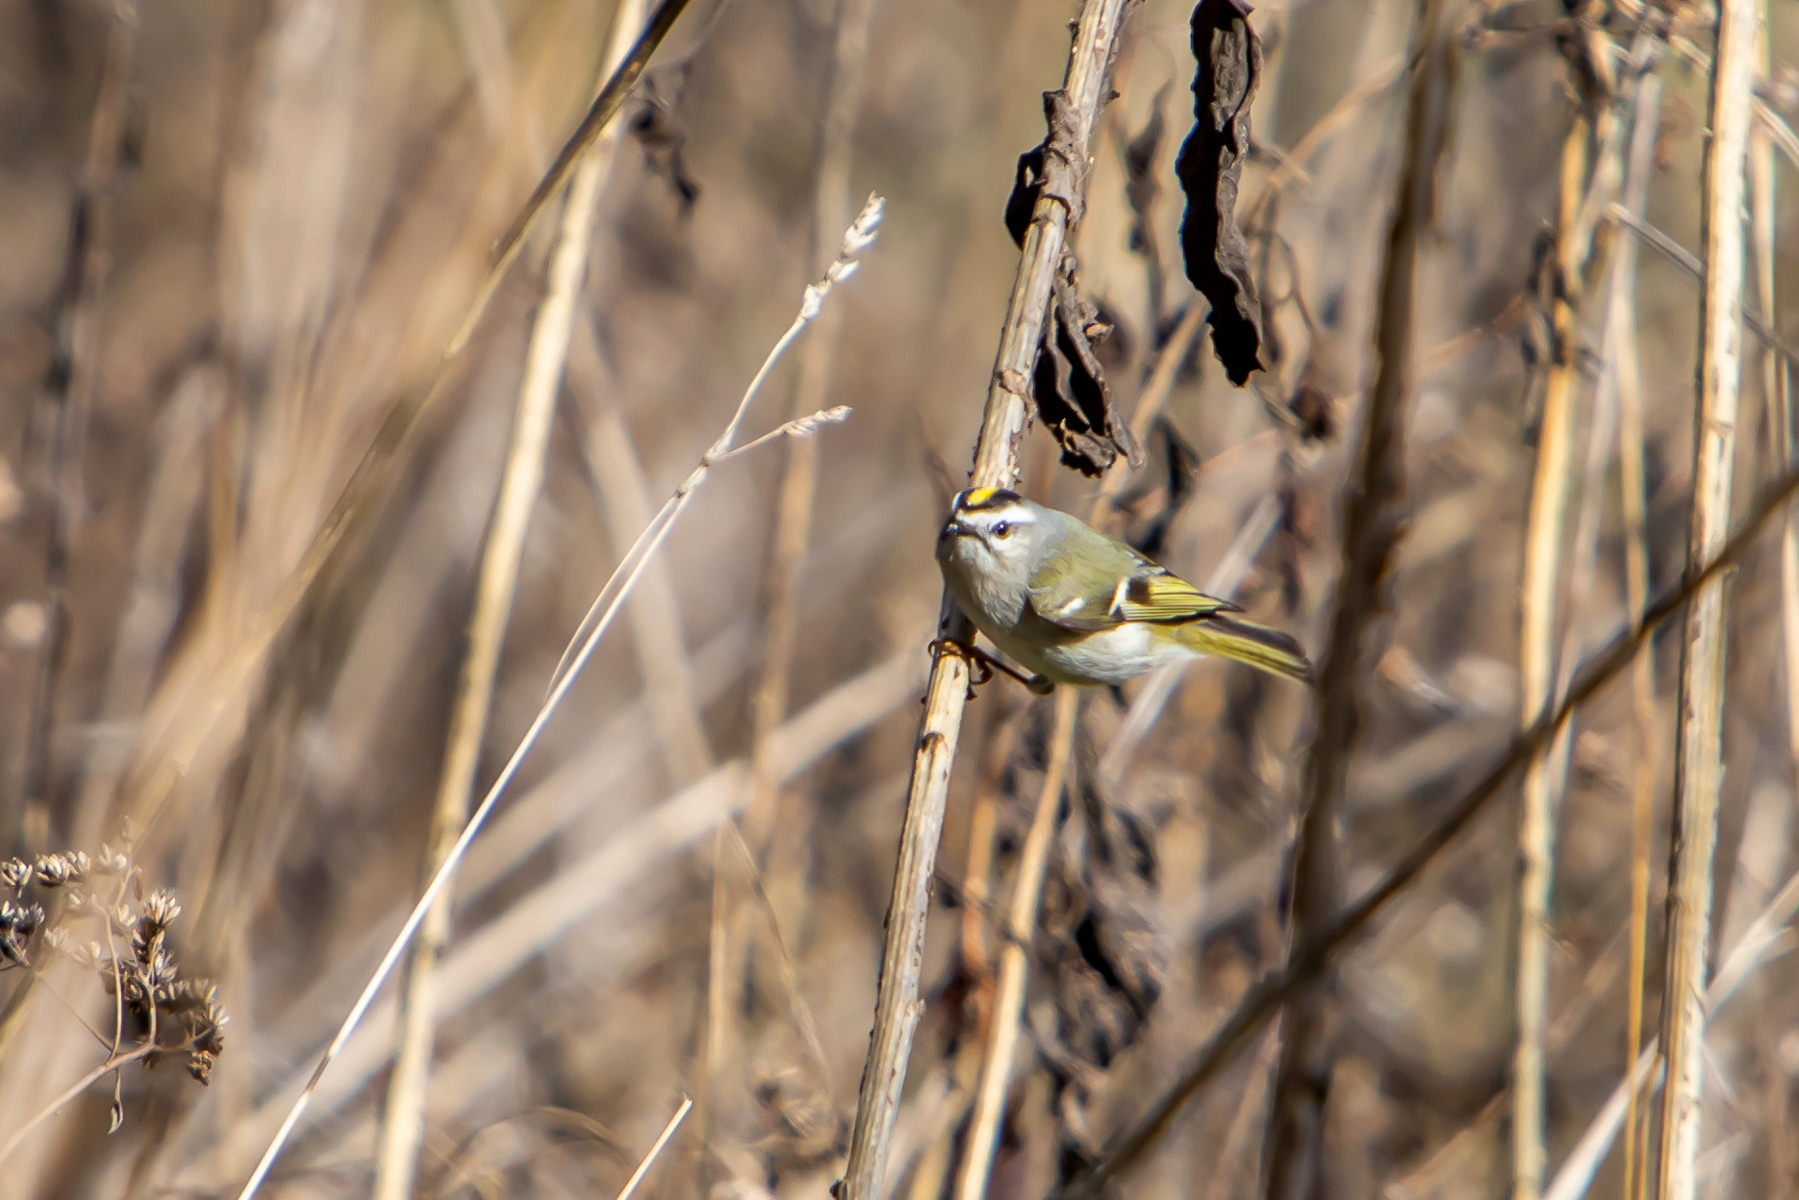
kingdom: Animalia
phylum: Chordata
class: Aves
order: Passeriformes
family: Regulidae
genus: Regulus
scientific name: Regulus satrapa
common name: Golden-crowned kinglet
